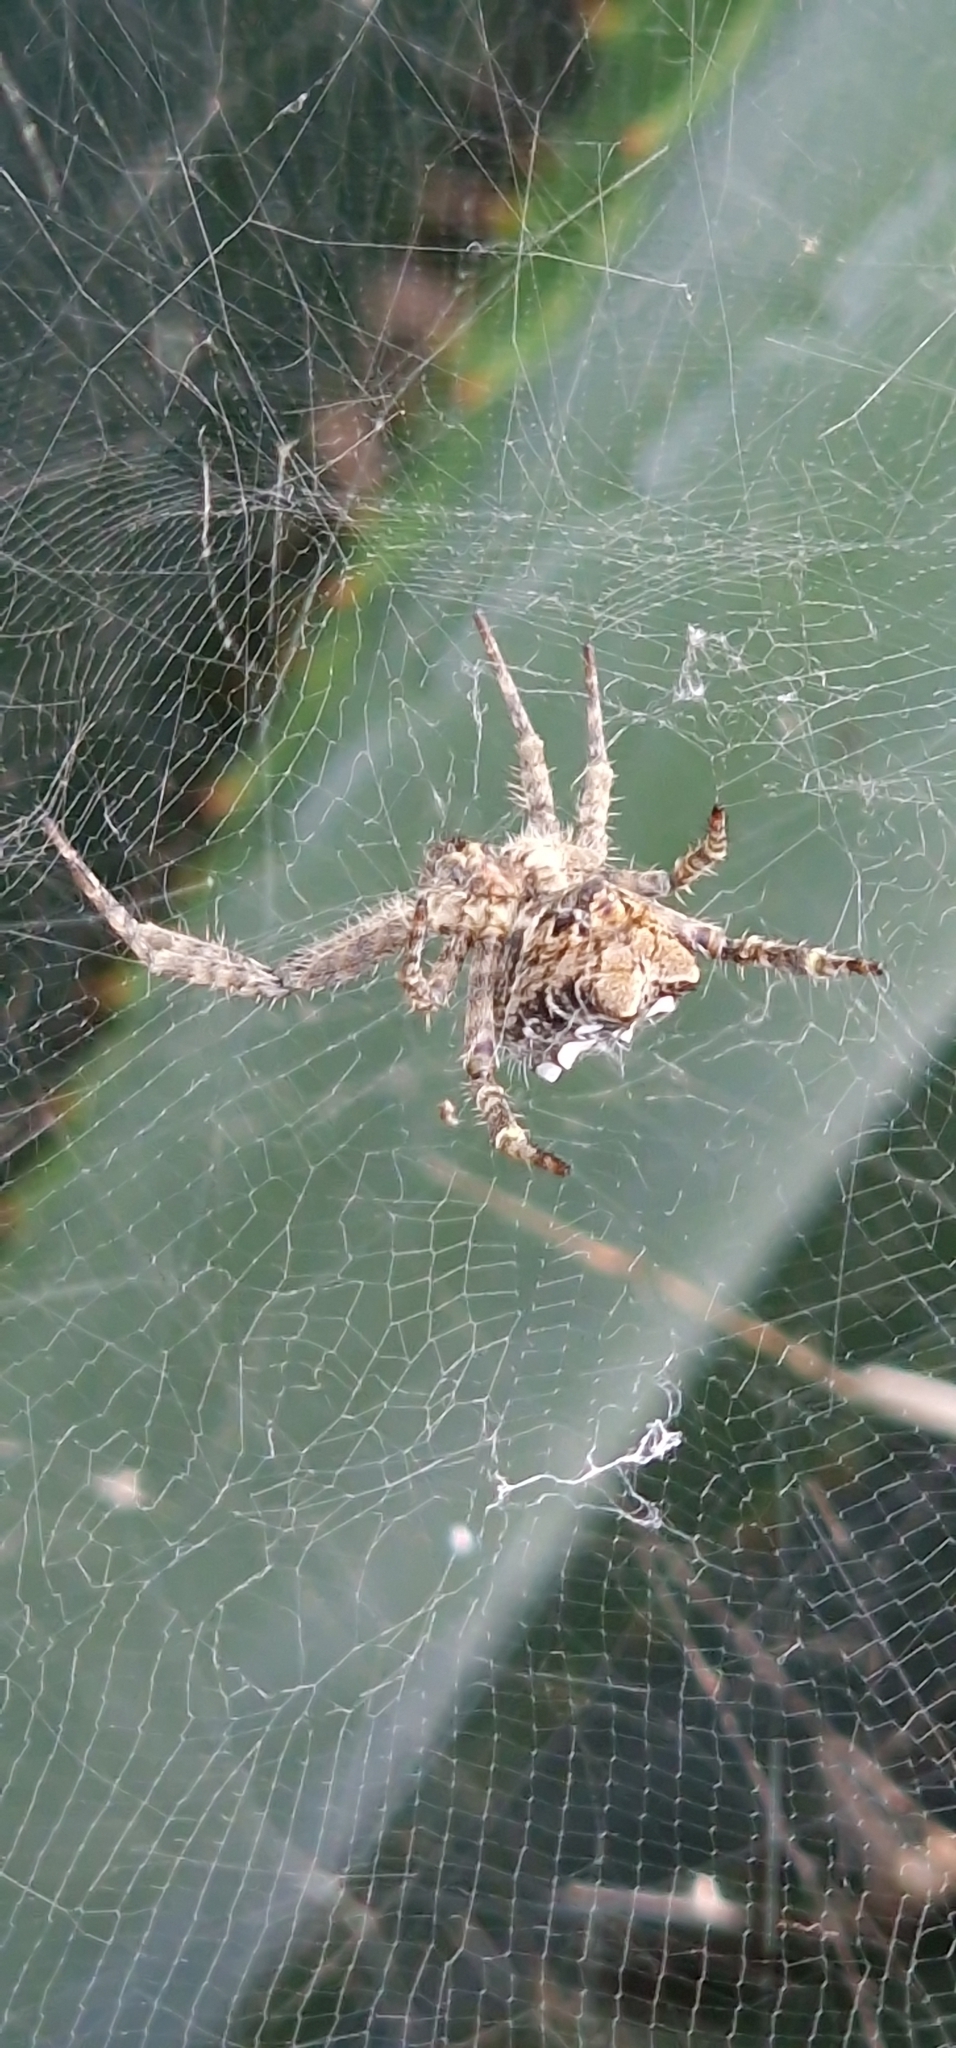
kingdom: Animalia
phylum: Arthropoda
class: Arachnida
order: Araneae
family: Araneidae
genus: Cyrtophora
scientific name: Cyrtophora citricola
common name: Orb weavers
